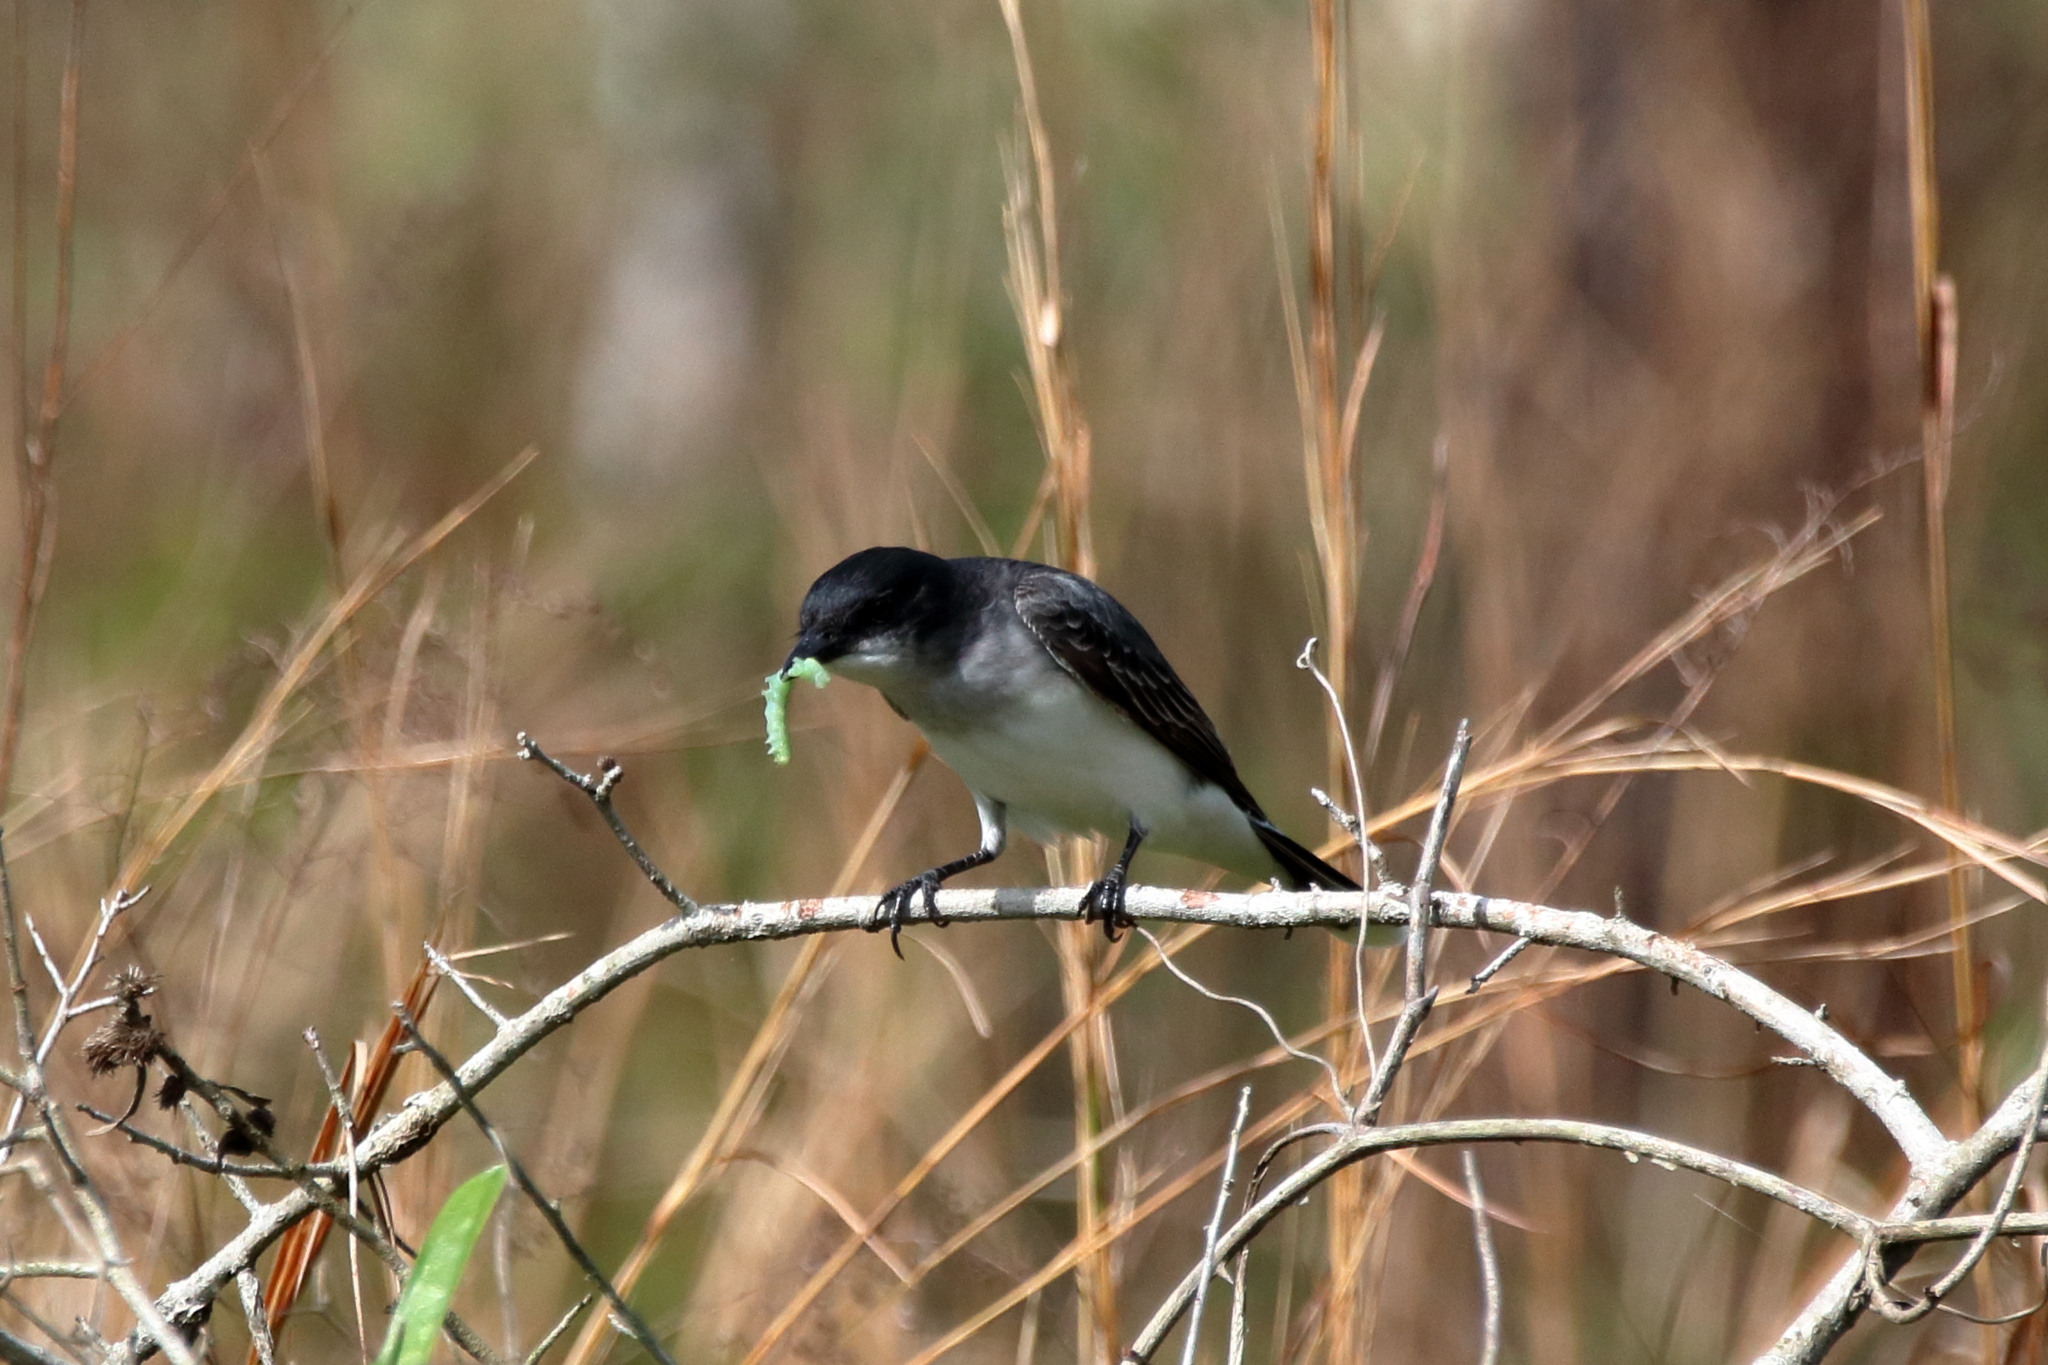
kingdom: Animalia
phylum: Chordata
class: Aves
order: Passeriformes
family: Tyrannidae
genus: Tyrannus
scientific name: Tyrannus tyrannus
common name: Eastern kingbird
